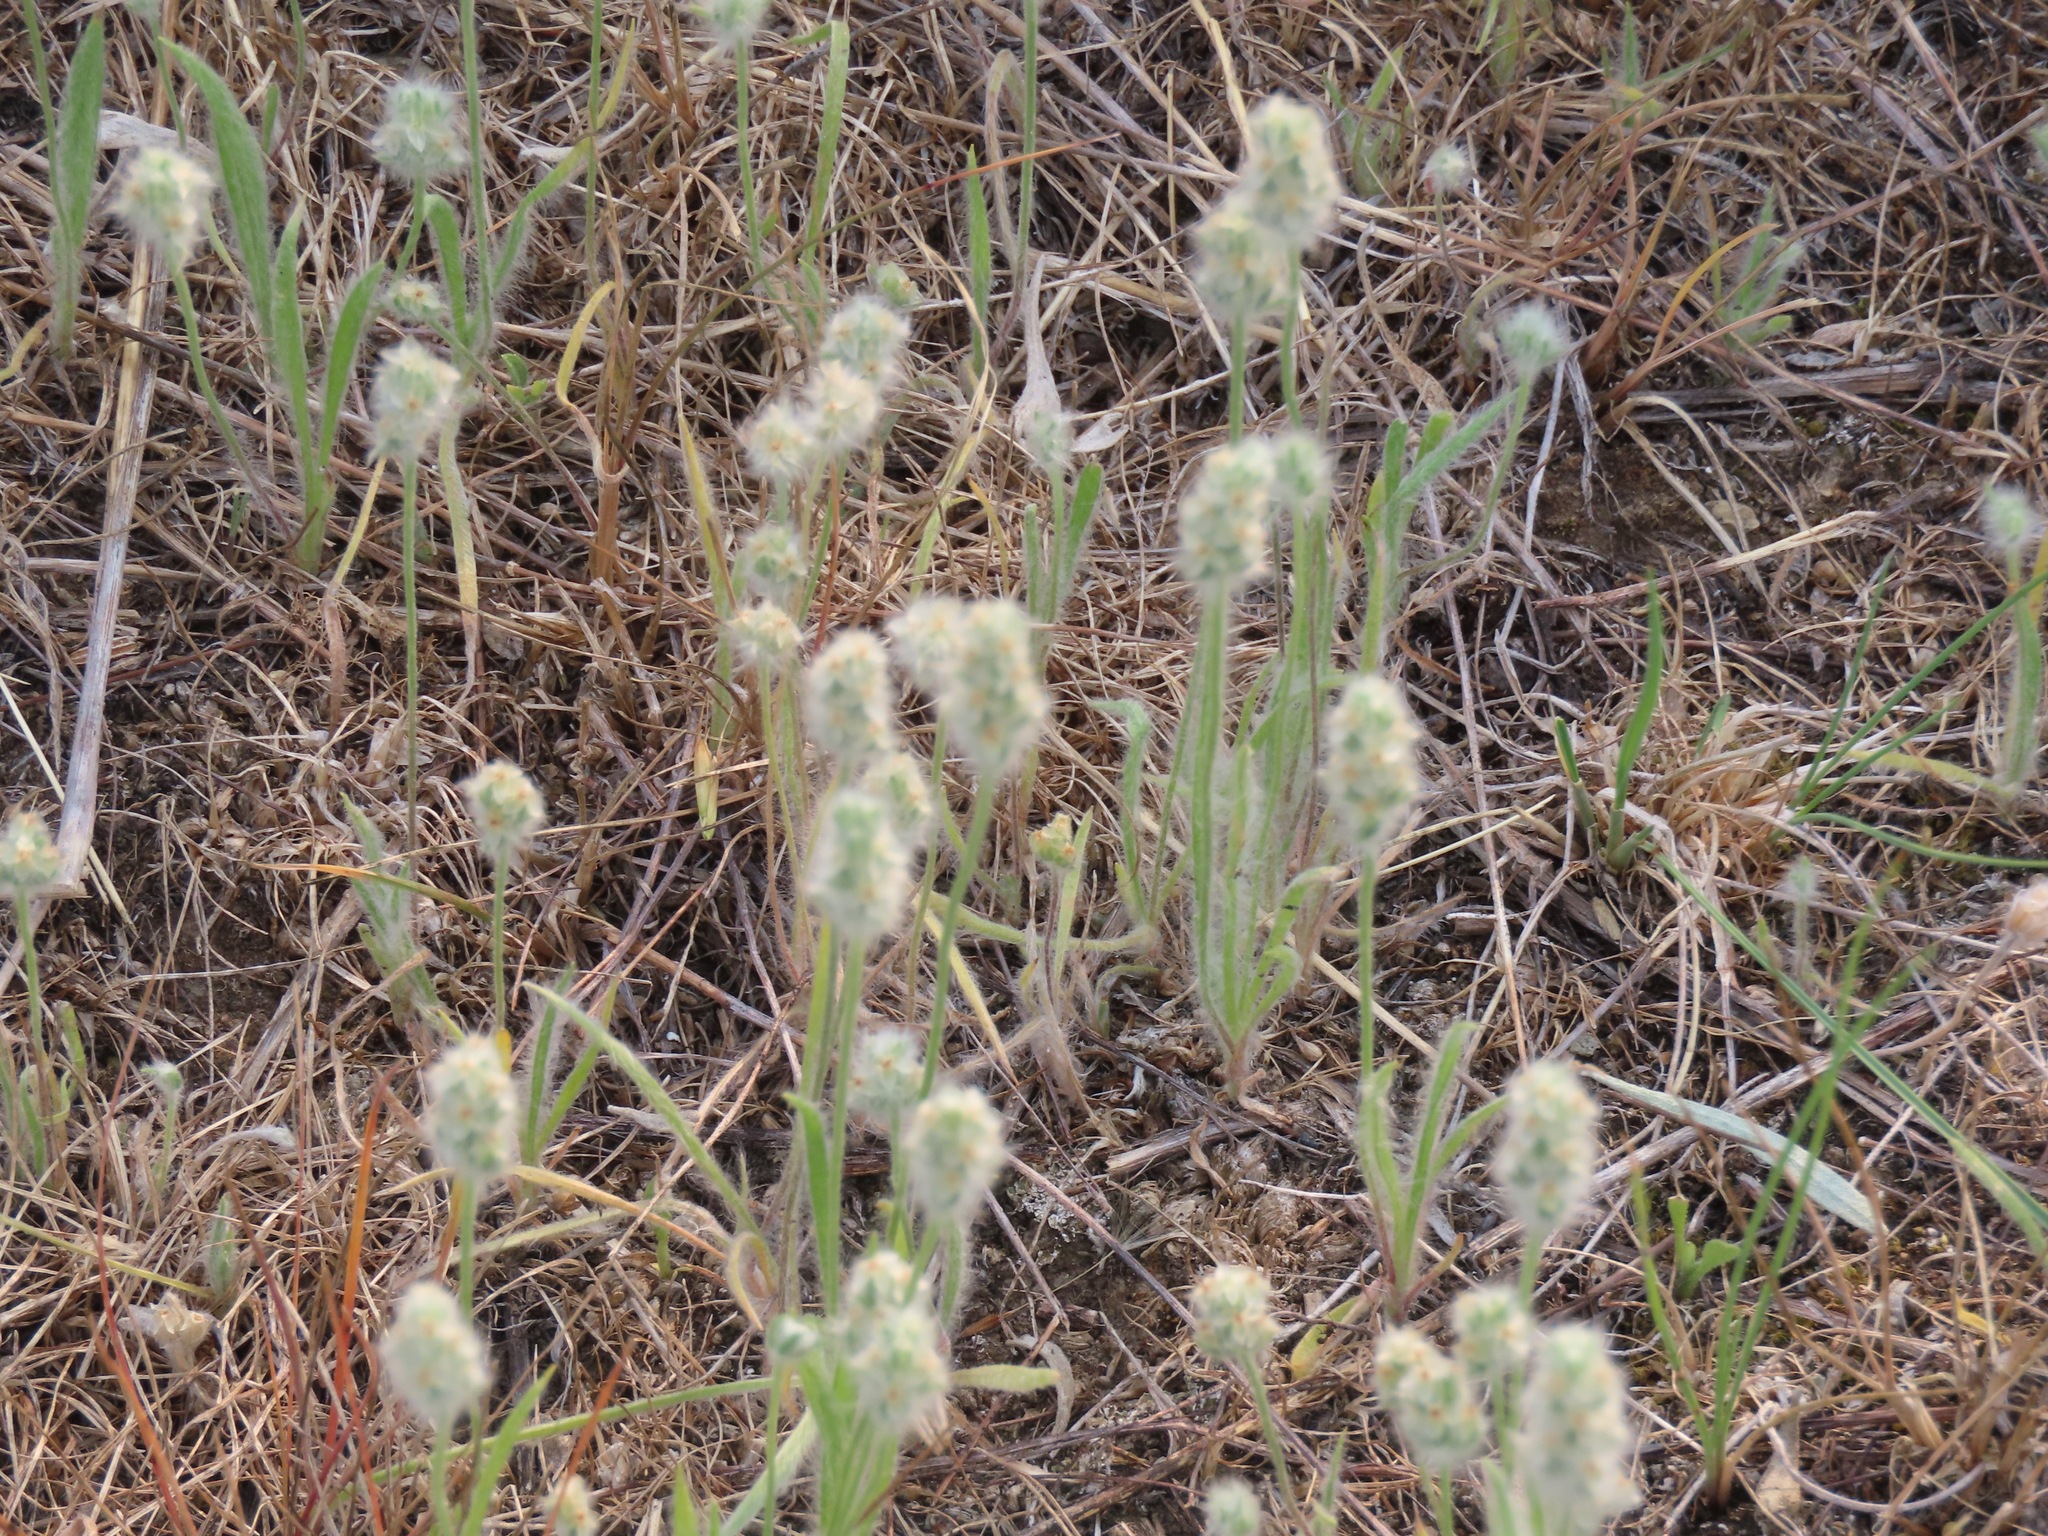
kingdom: Plantae
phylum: Tracheophyta
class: Magnoliopsida
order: Lamiales
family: Plantaginaceae
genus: Plantago
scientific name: Plantago patagonica
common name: Patagonia indian-wheat
